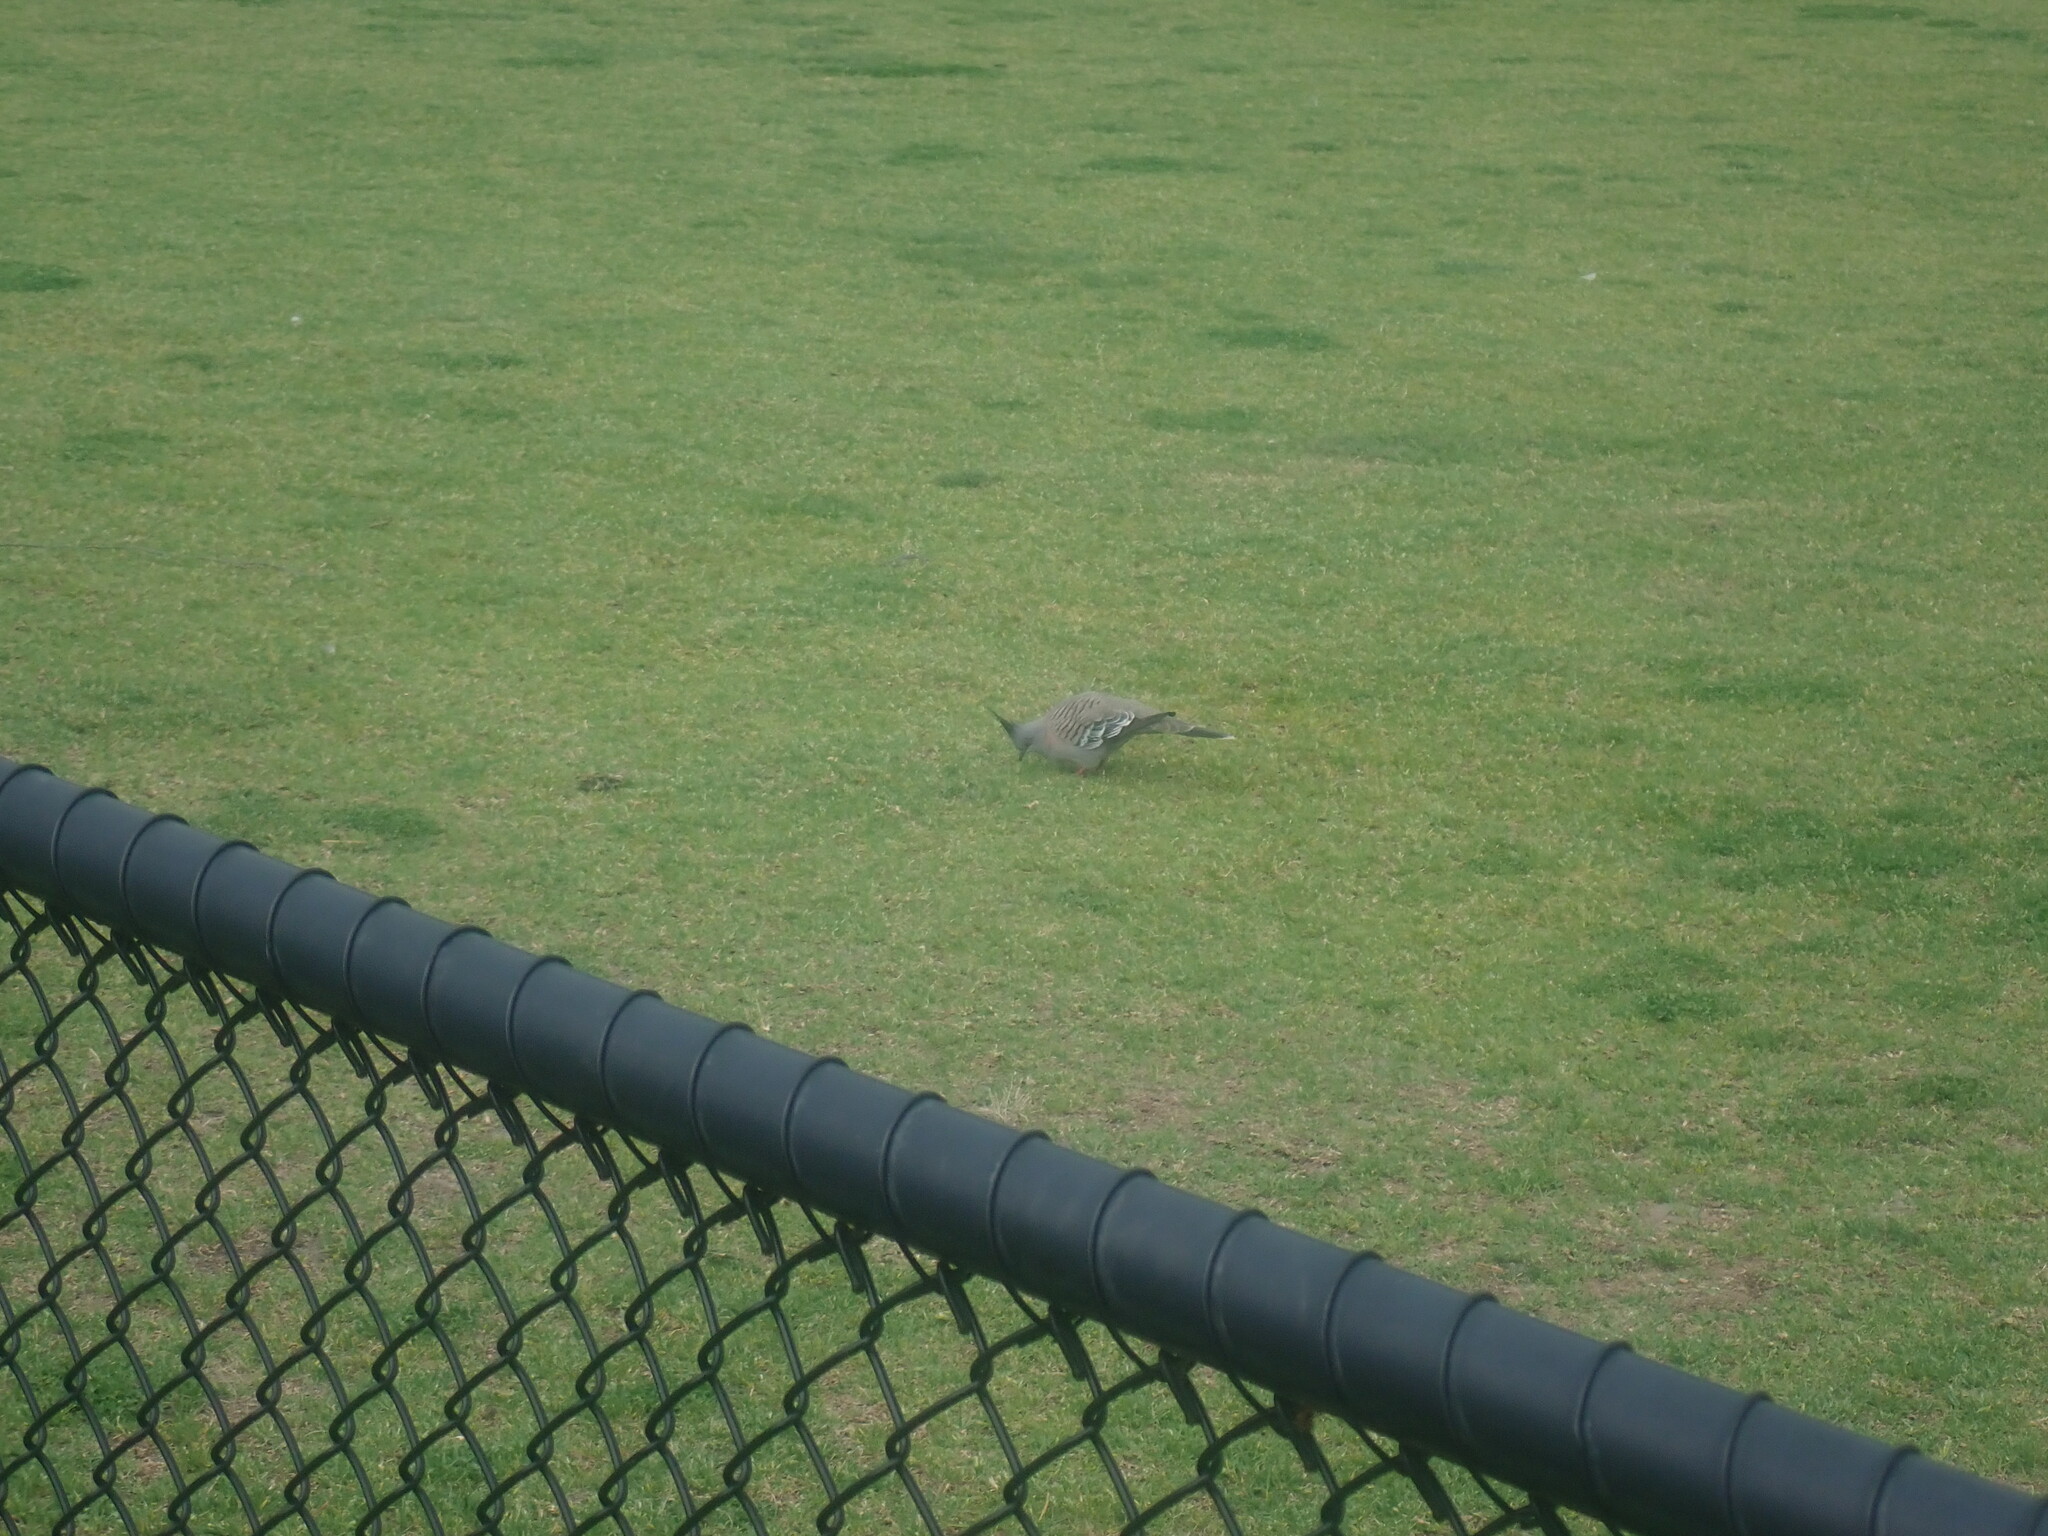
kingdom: Animalia
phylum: Chordata
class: Aves
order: Columbiformes
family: Columbidae
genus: Ocyphaps
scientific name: Ocyphaps lophotes
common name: Crested pigeon
